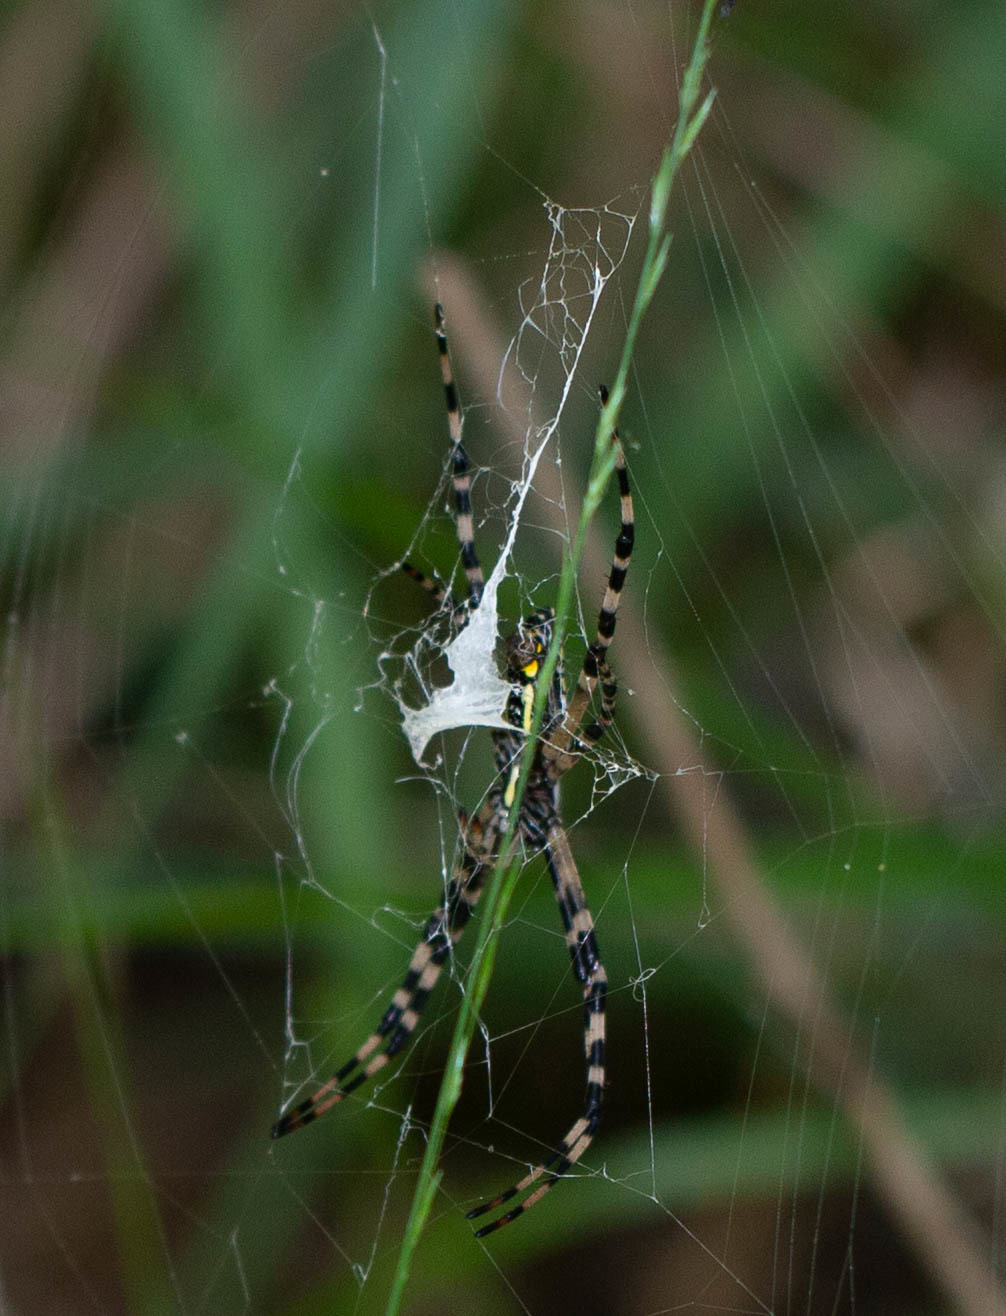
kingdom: Animalia
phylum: Arthropoda
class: Arachnida
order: Araneae
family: Araneidae
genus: Argiope
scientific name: Argiope aurantia
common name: Orb weavers
